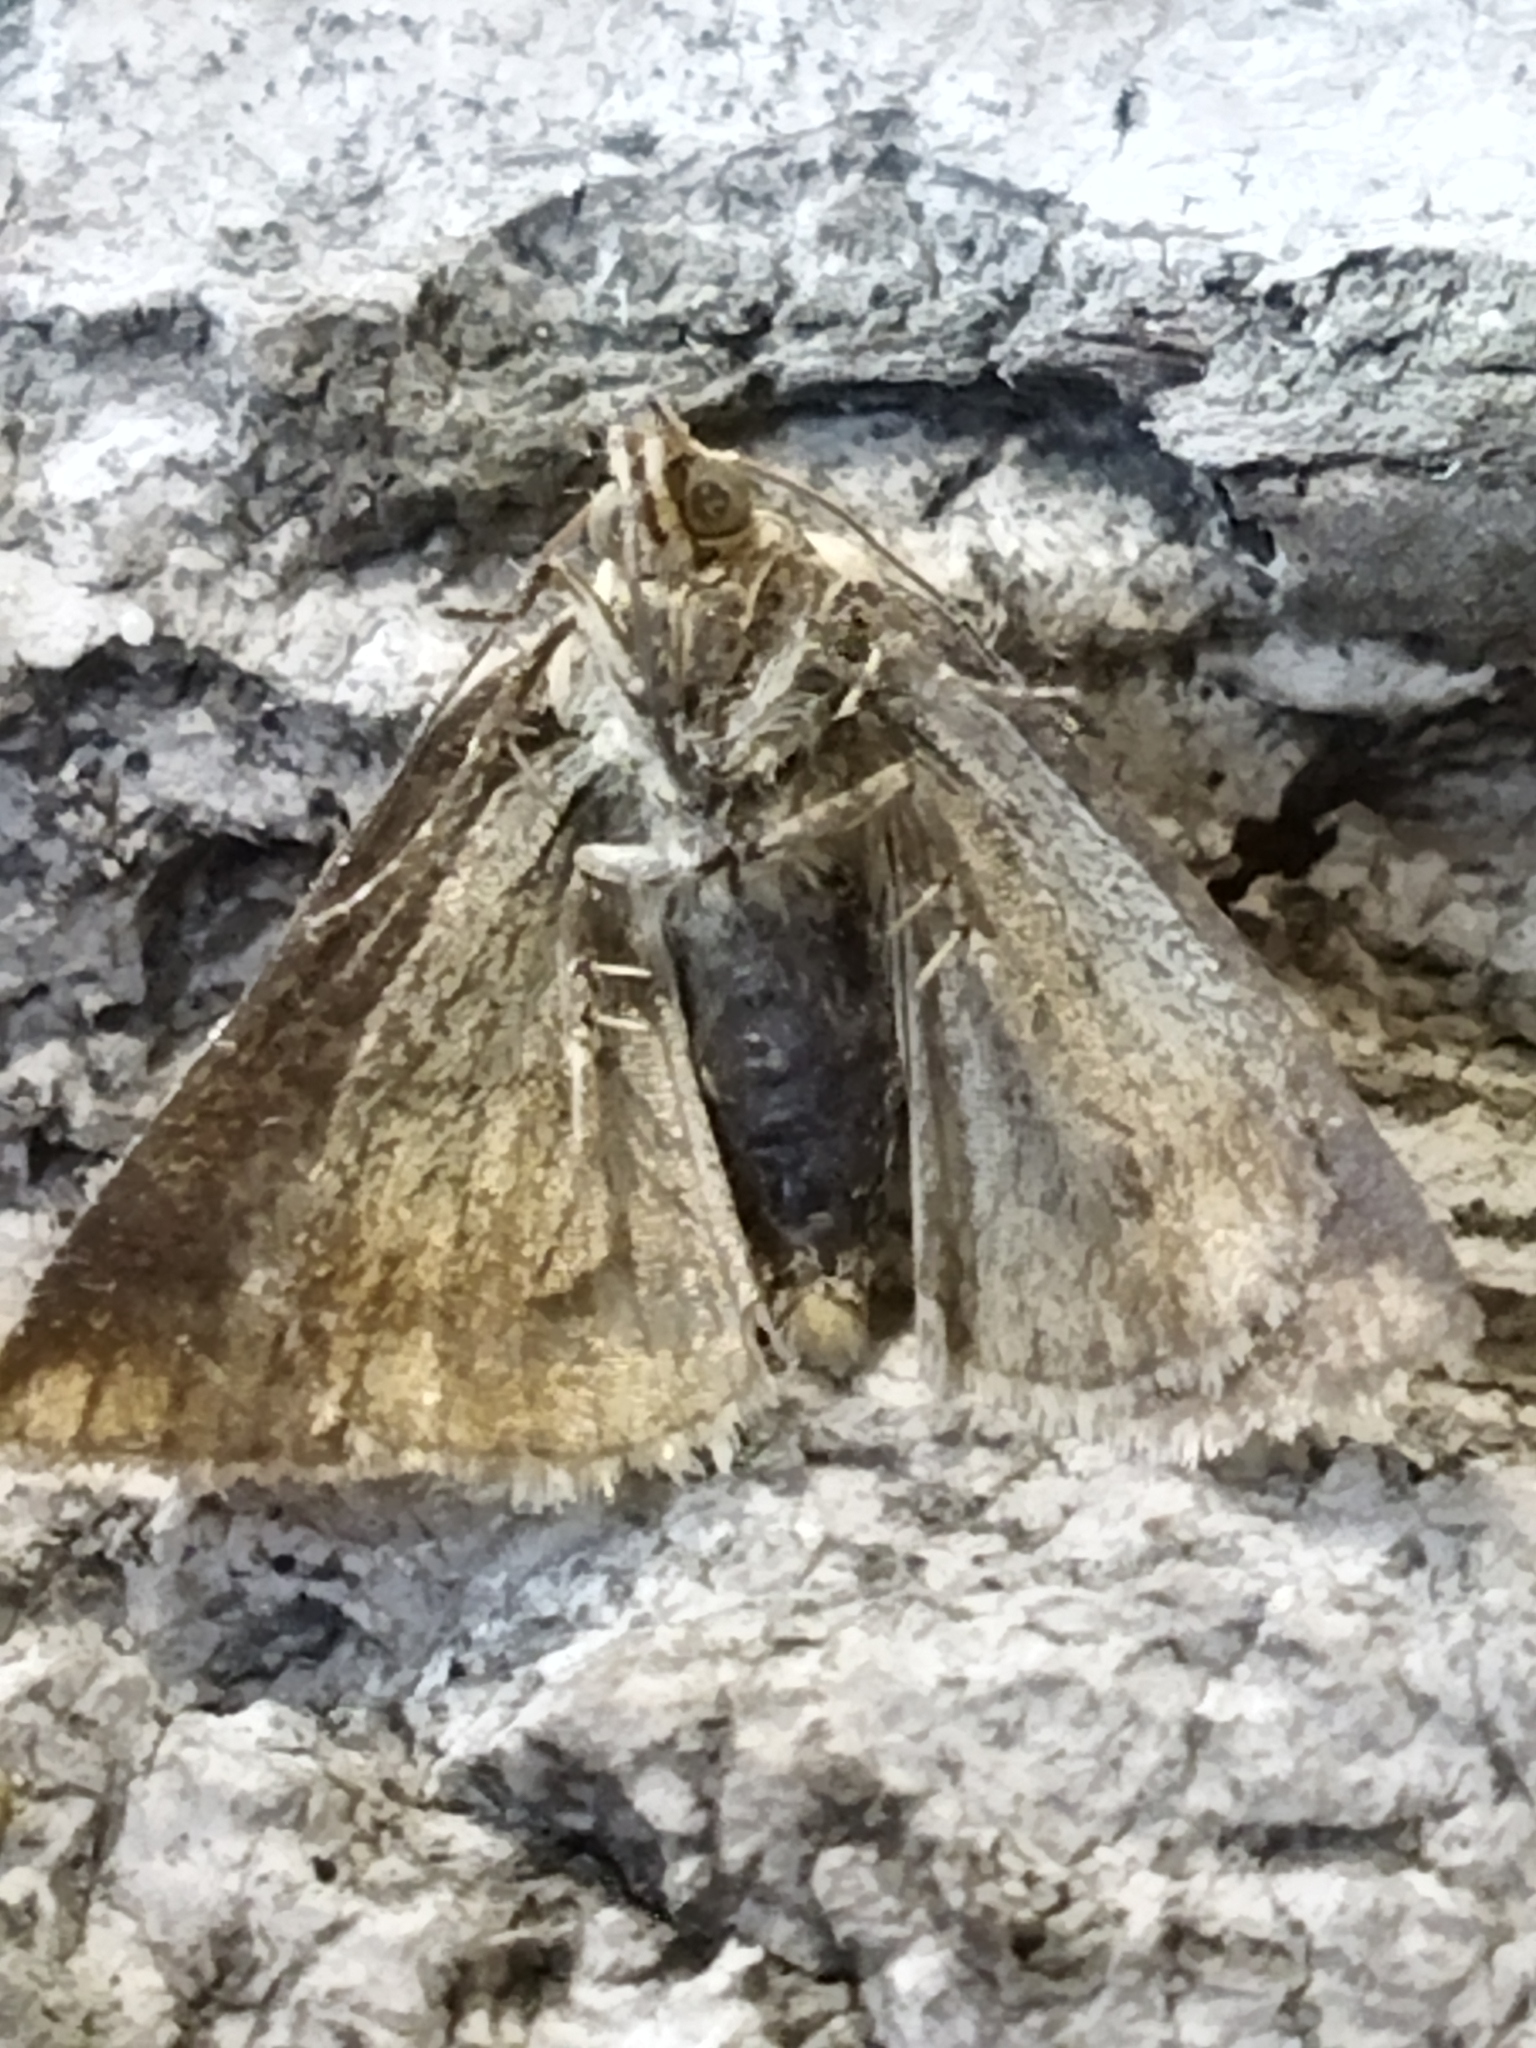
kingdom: Animalia
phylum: Arthropoda
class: Insecta
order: Lepidoptera
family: Noctuidae
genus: Aegle
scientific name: Aegle kaekeritziana
